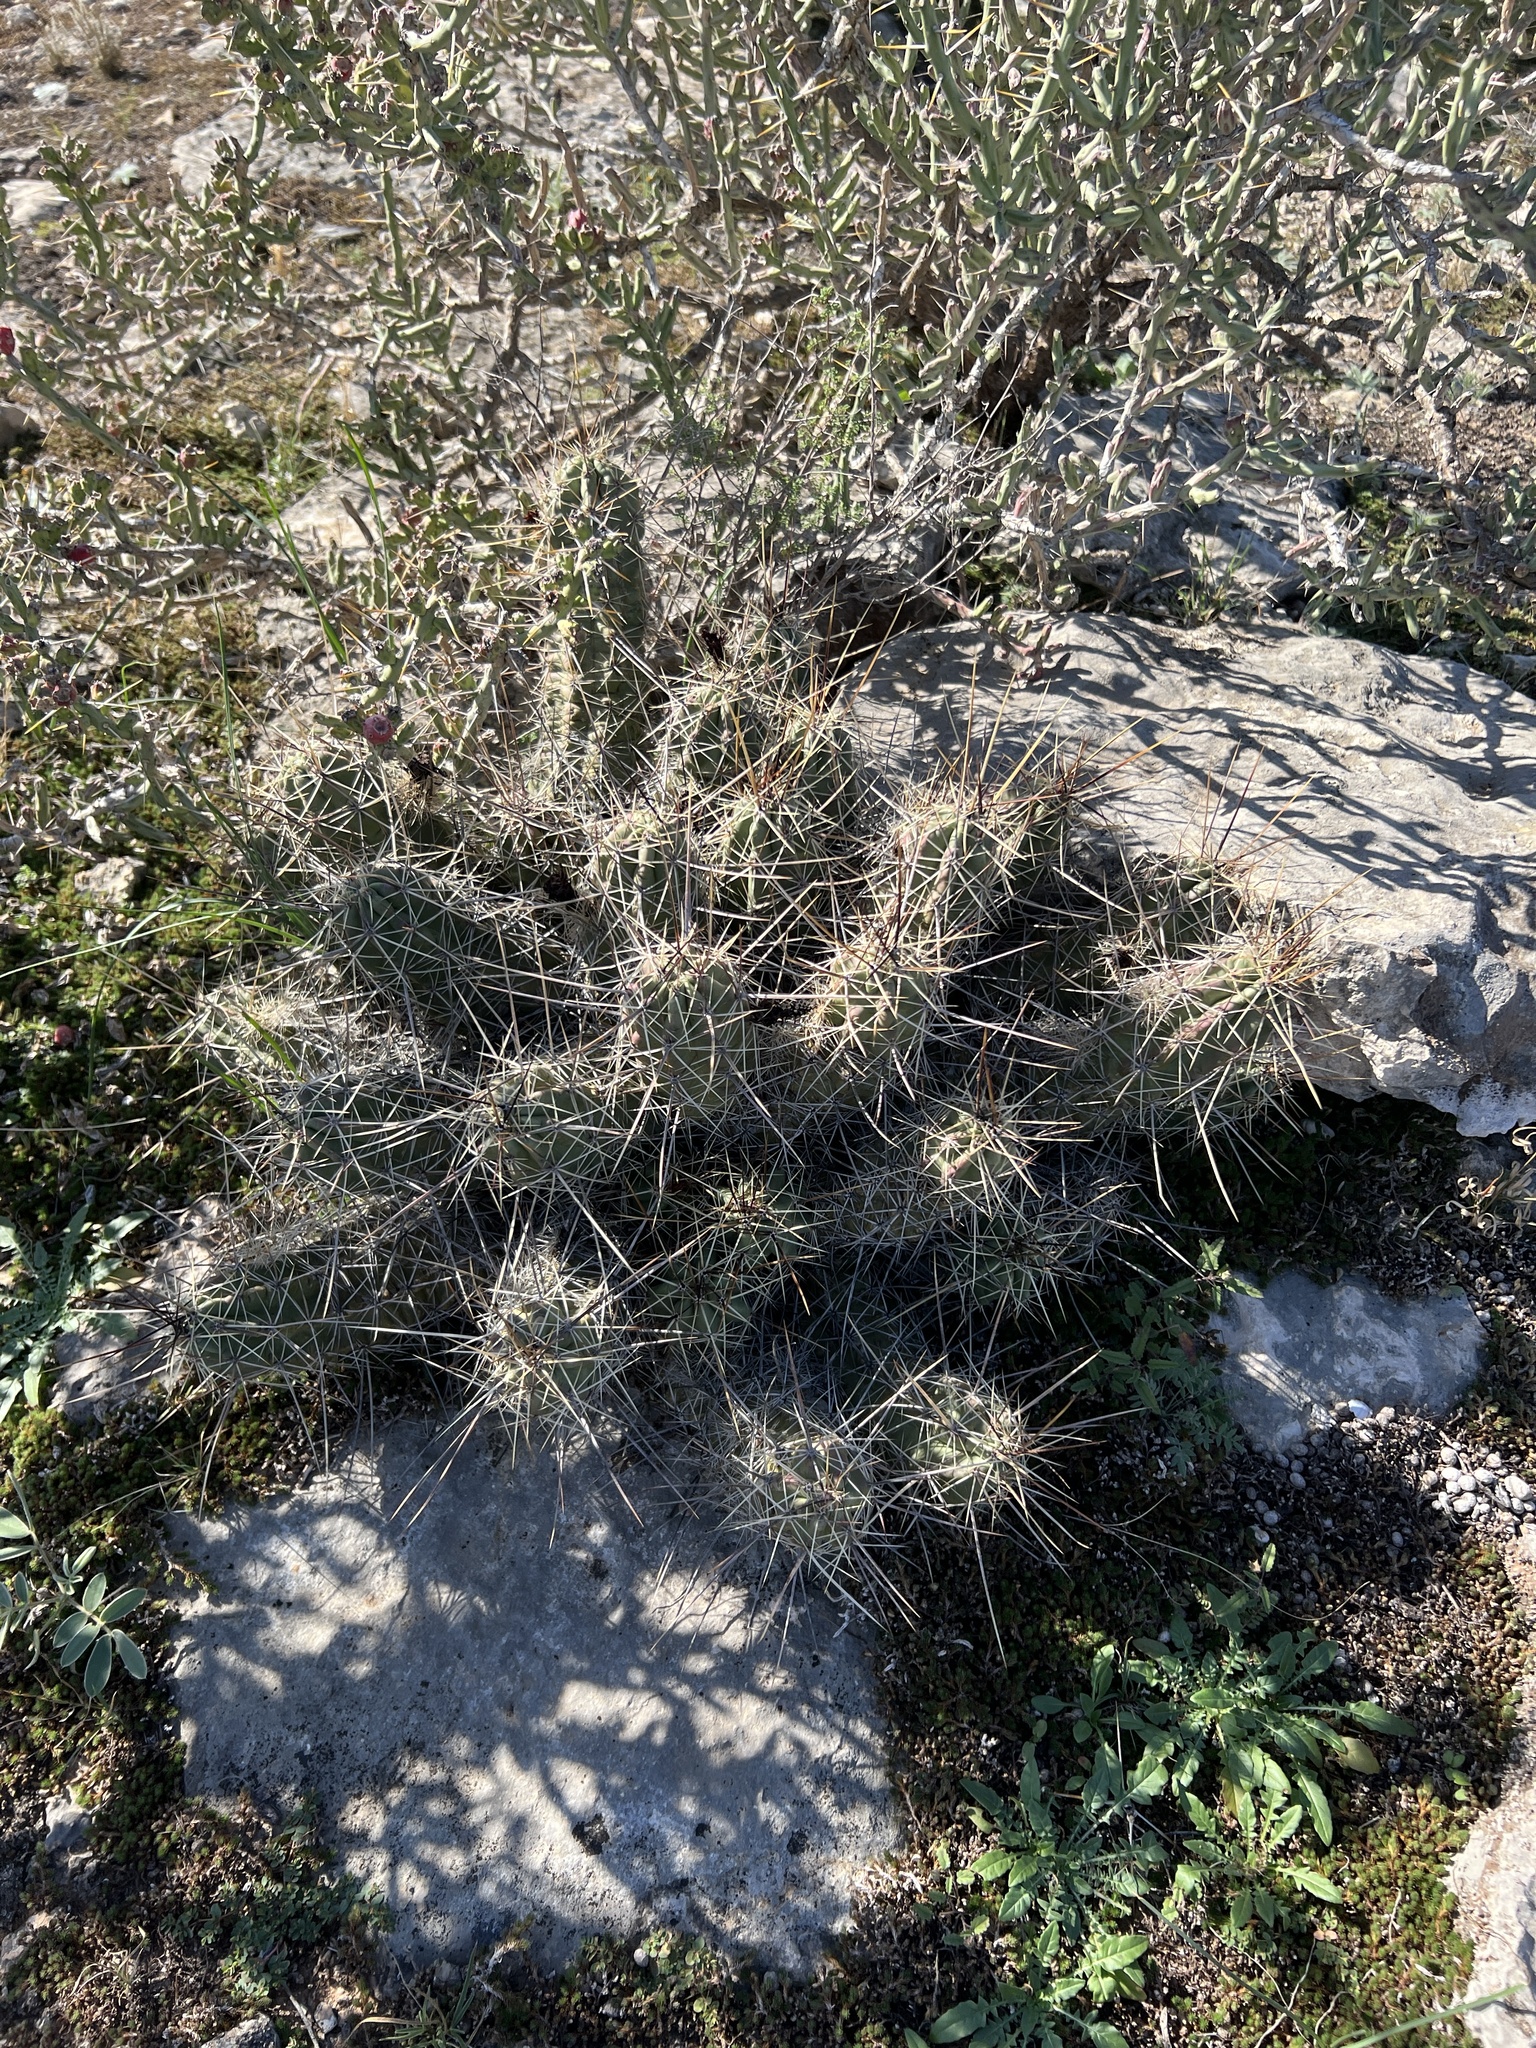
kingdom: Plantae
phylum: Tracheophyta
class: Magnoliopsida
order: Caryophyllales
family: Cactaceae
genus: Echinocereus
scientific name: Echinocereus enneacanthus
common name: Pitaya
